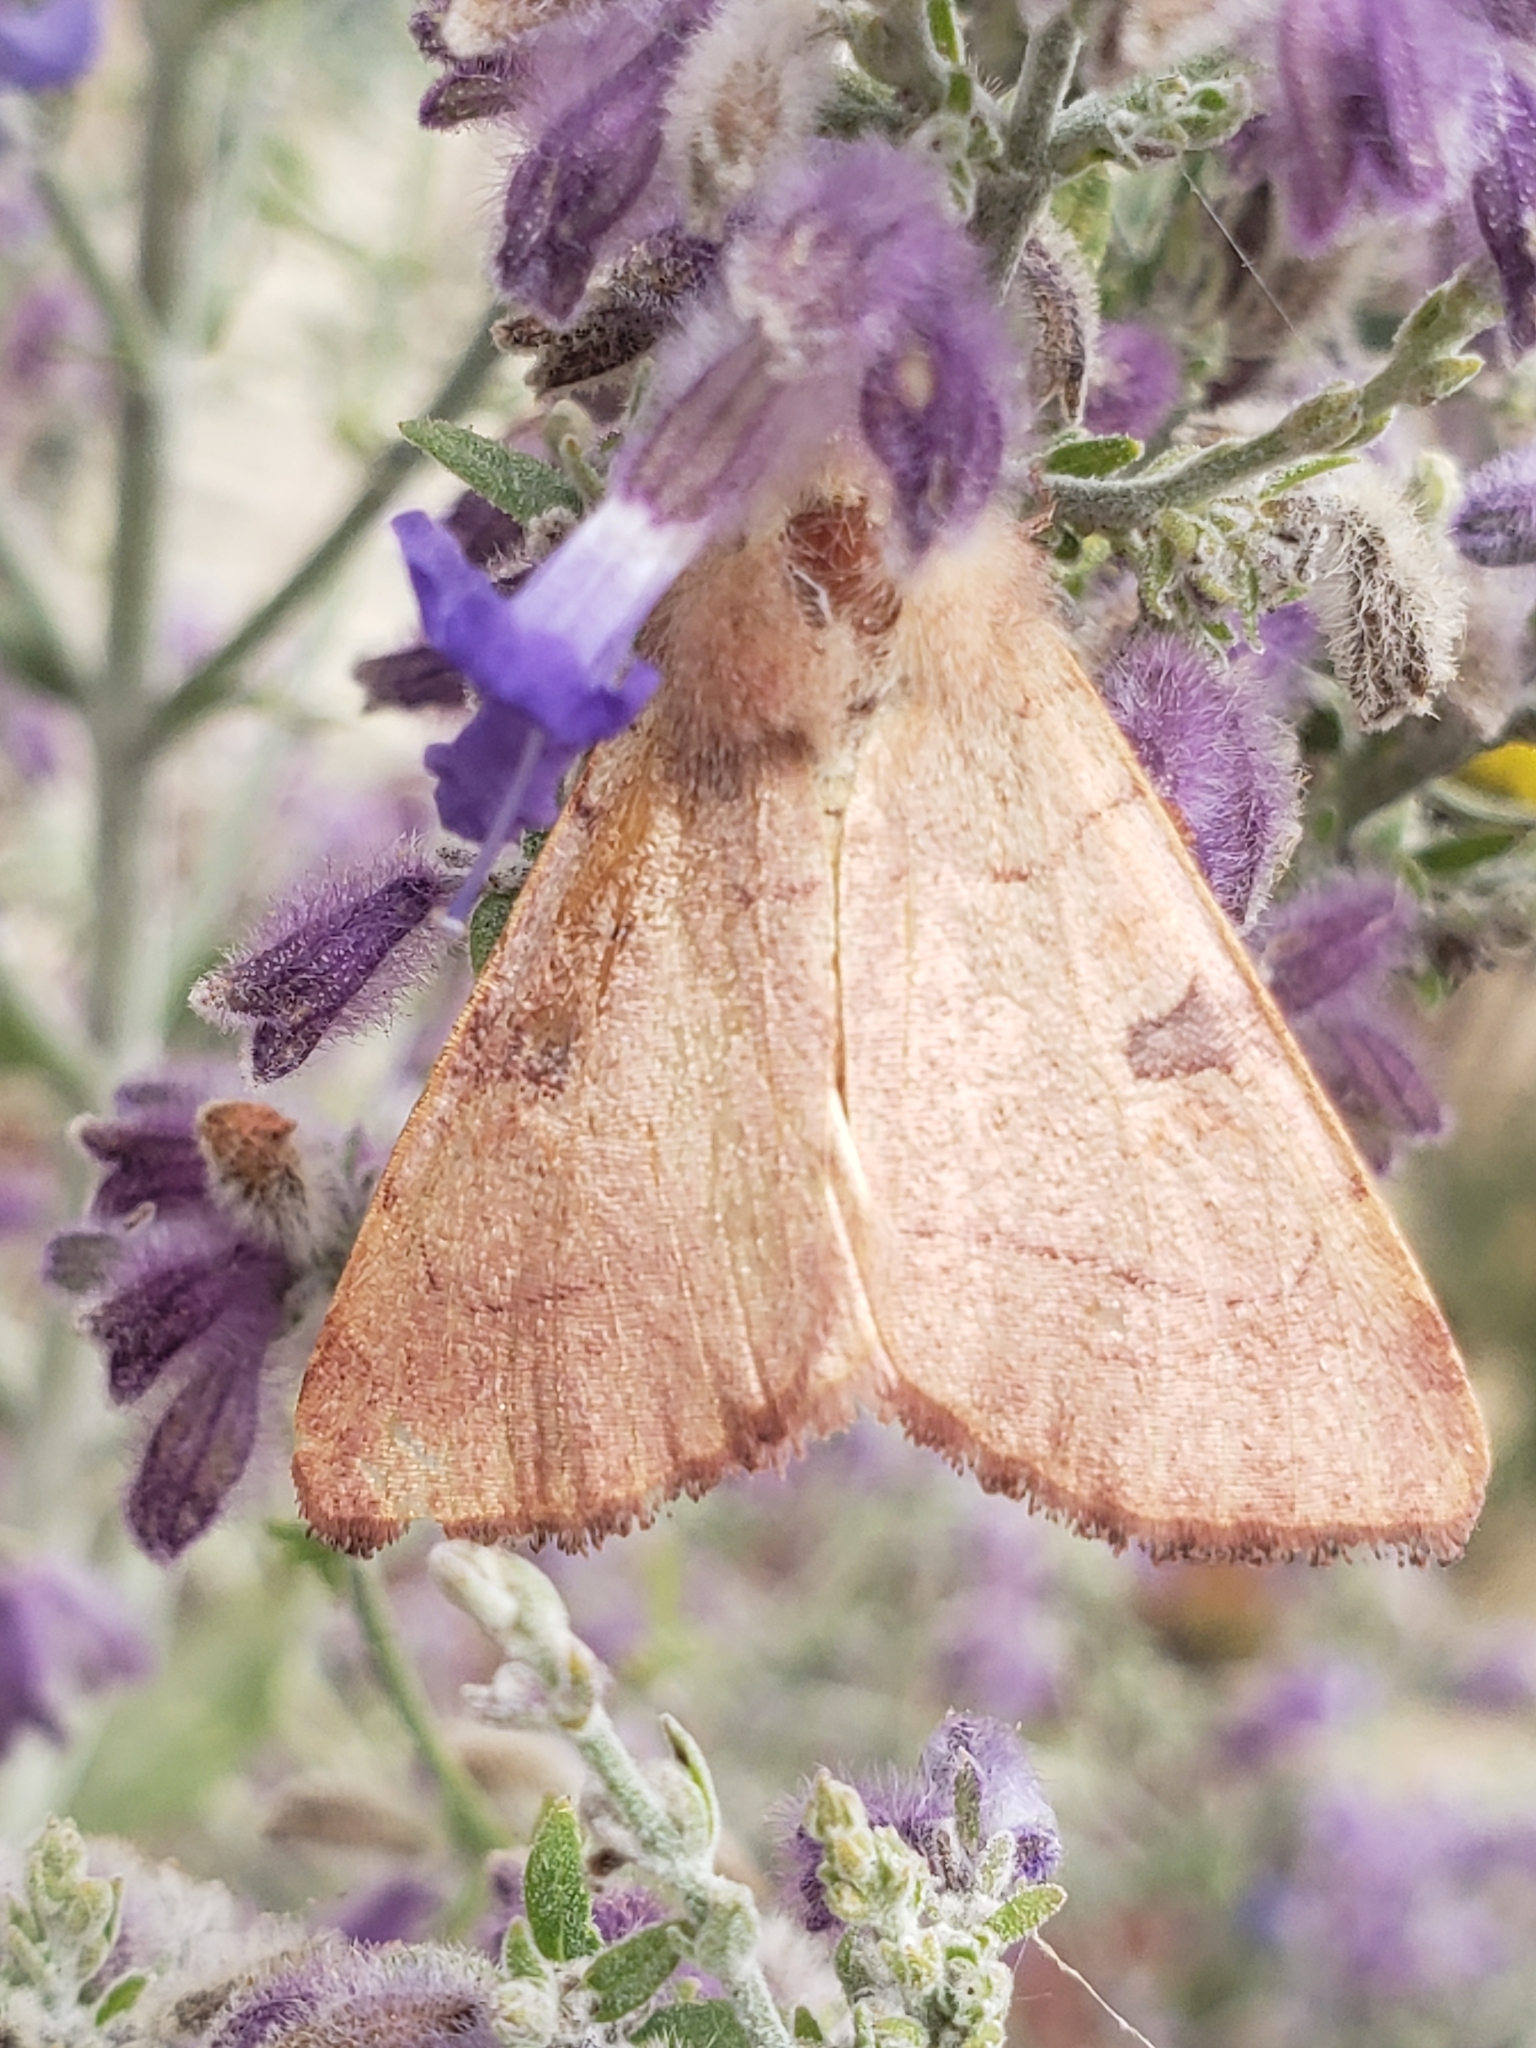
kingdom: Animalia
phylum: Arthropoda
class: Insecta
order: Lepidoptera
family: Noctuidae
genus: Choephora
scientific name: Choephora fungorum
